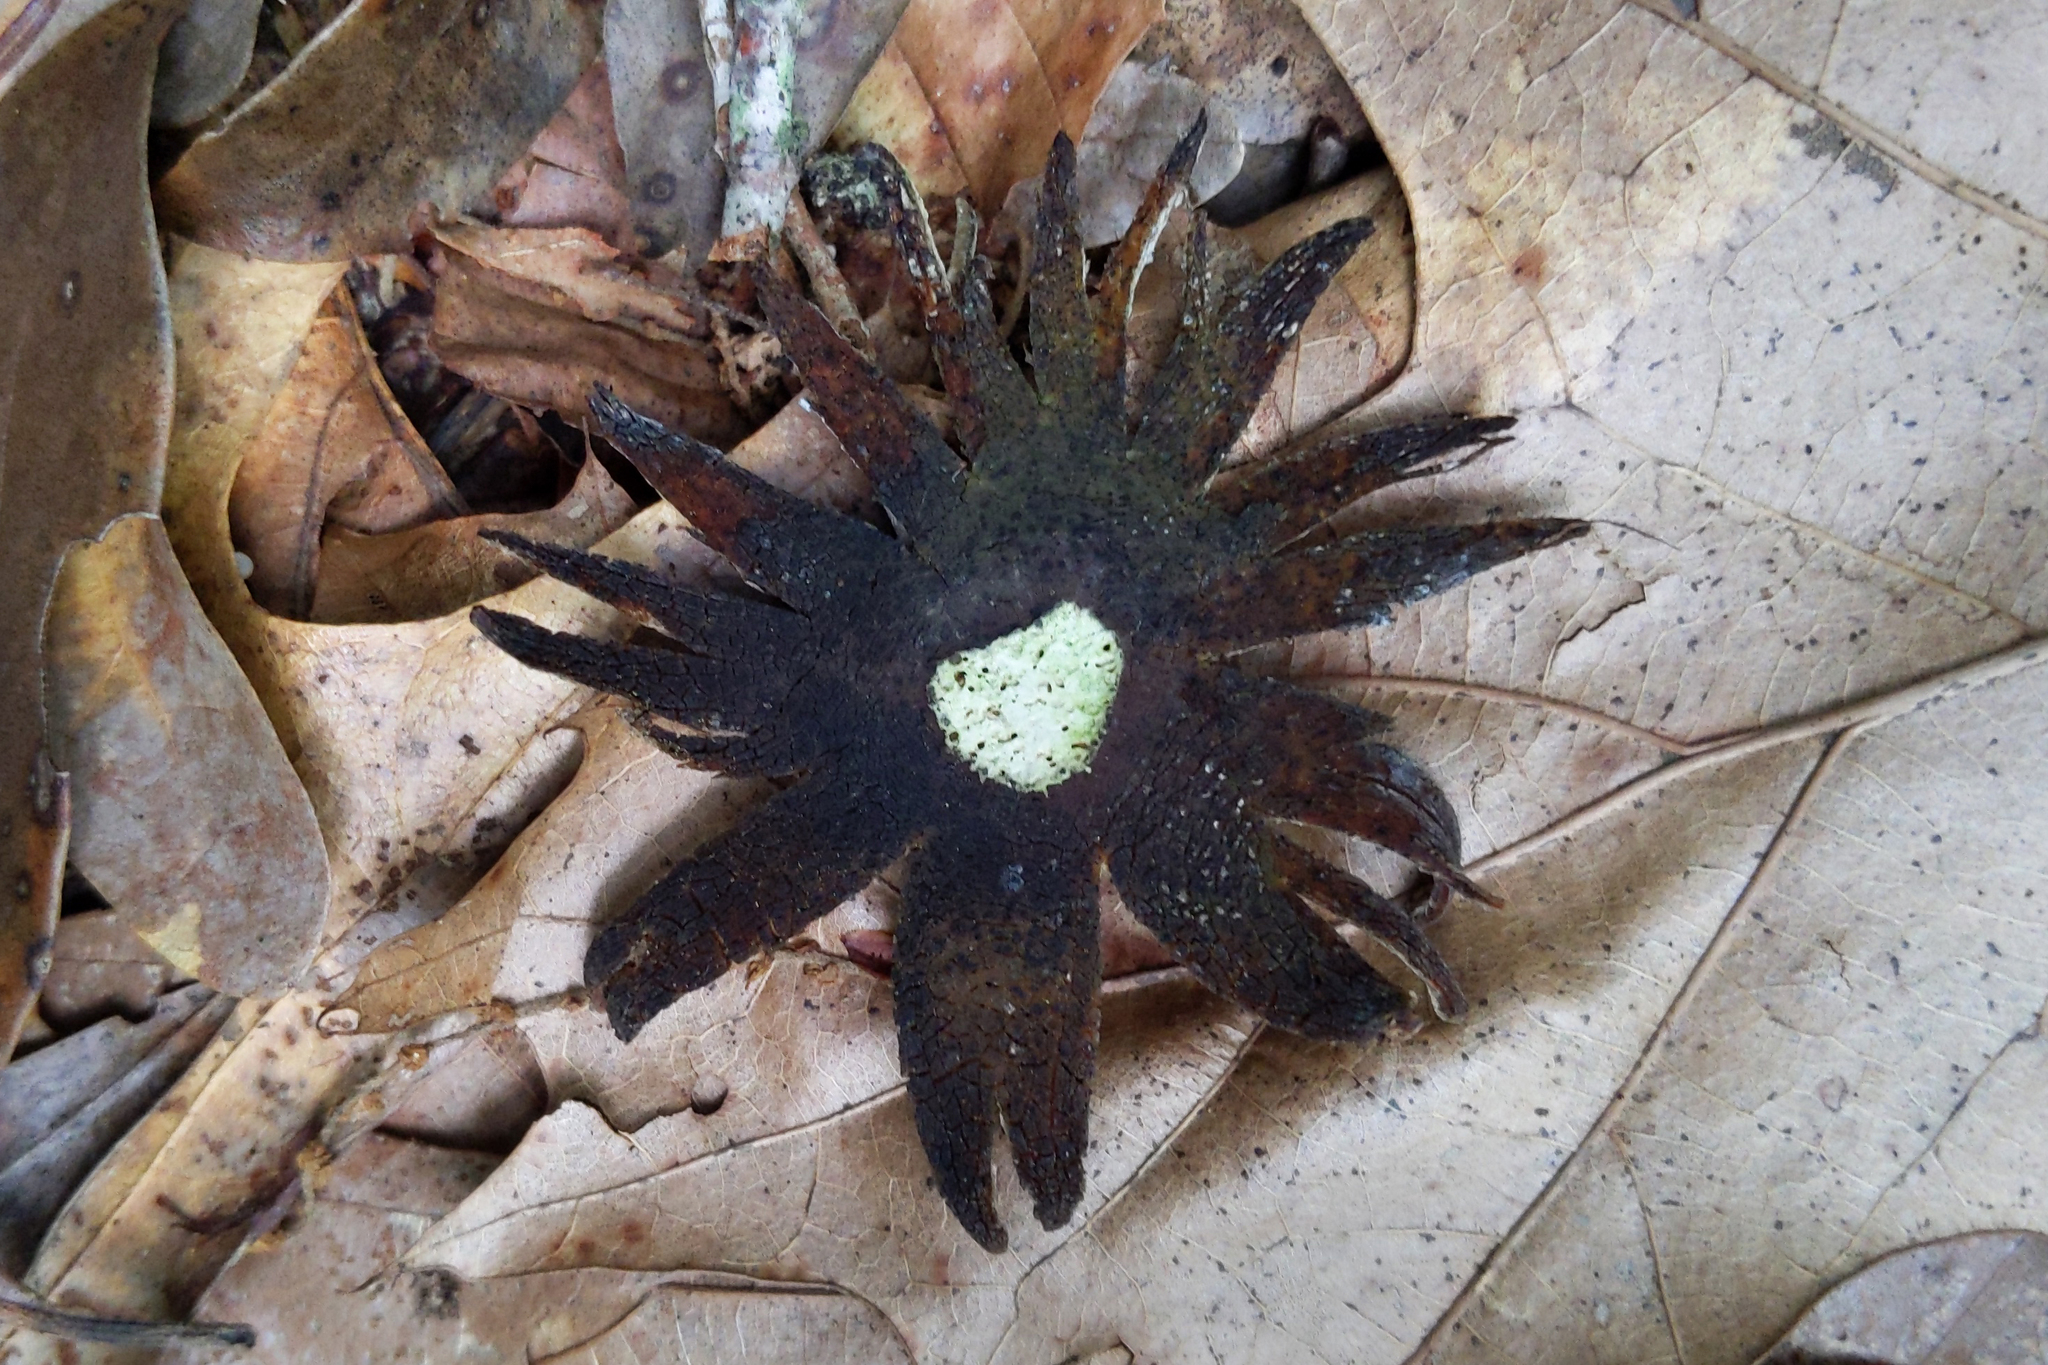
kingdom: Fungi
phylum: Basidiomycota
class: Agaricomycetes
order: Boletales
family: Diplocystidiaceae
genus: Astraeus
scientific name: Astraeus hygrometricus
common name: Barometer earthstar
